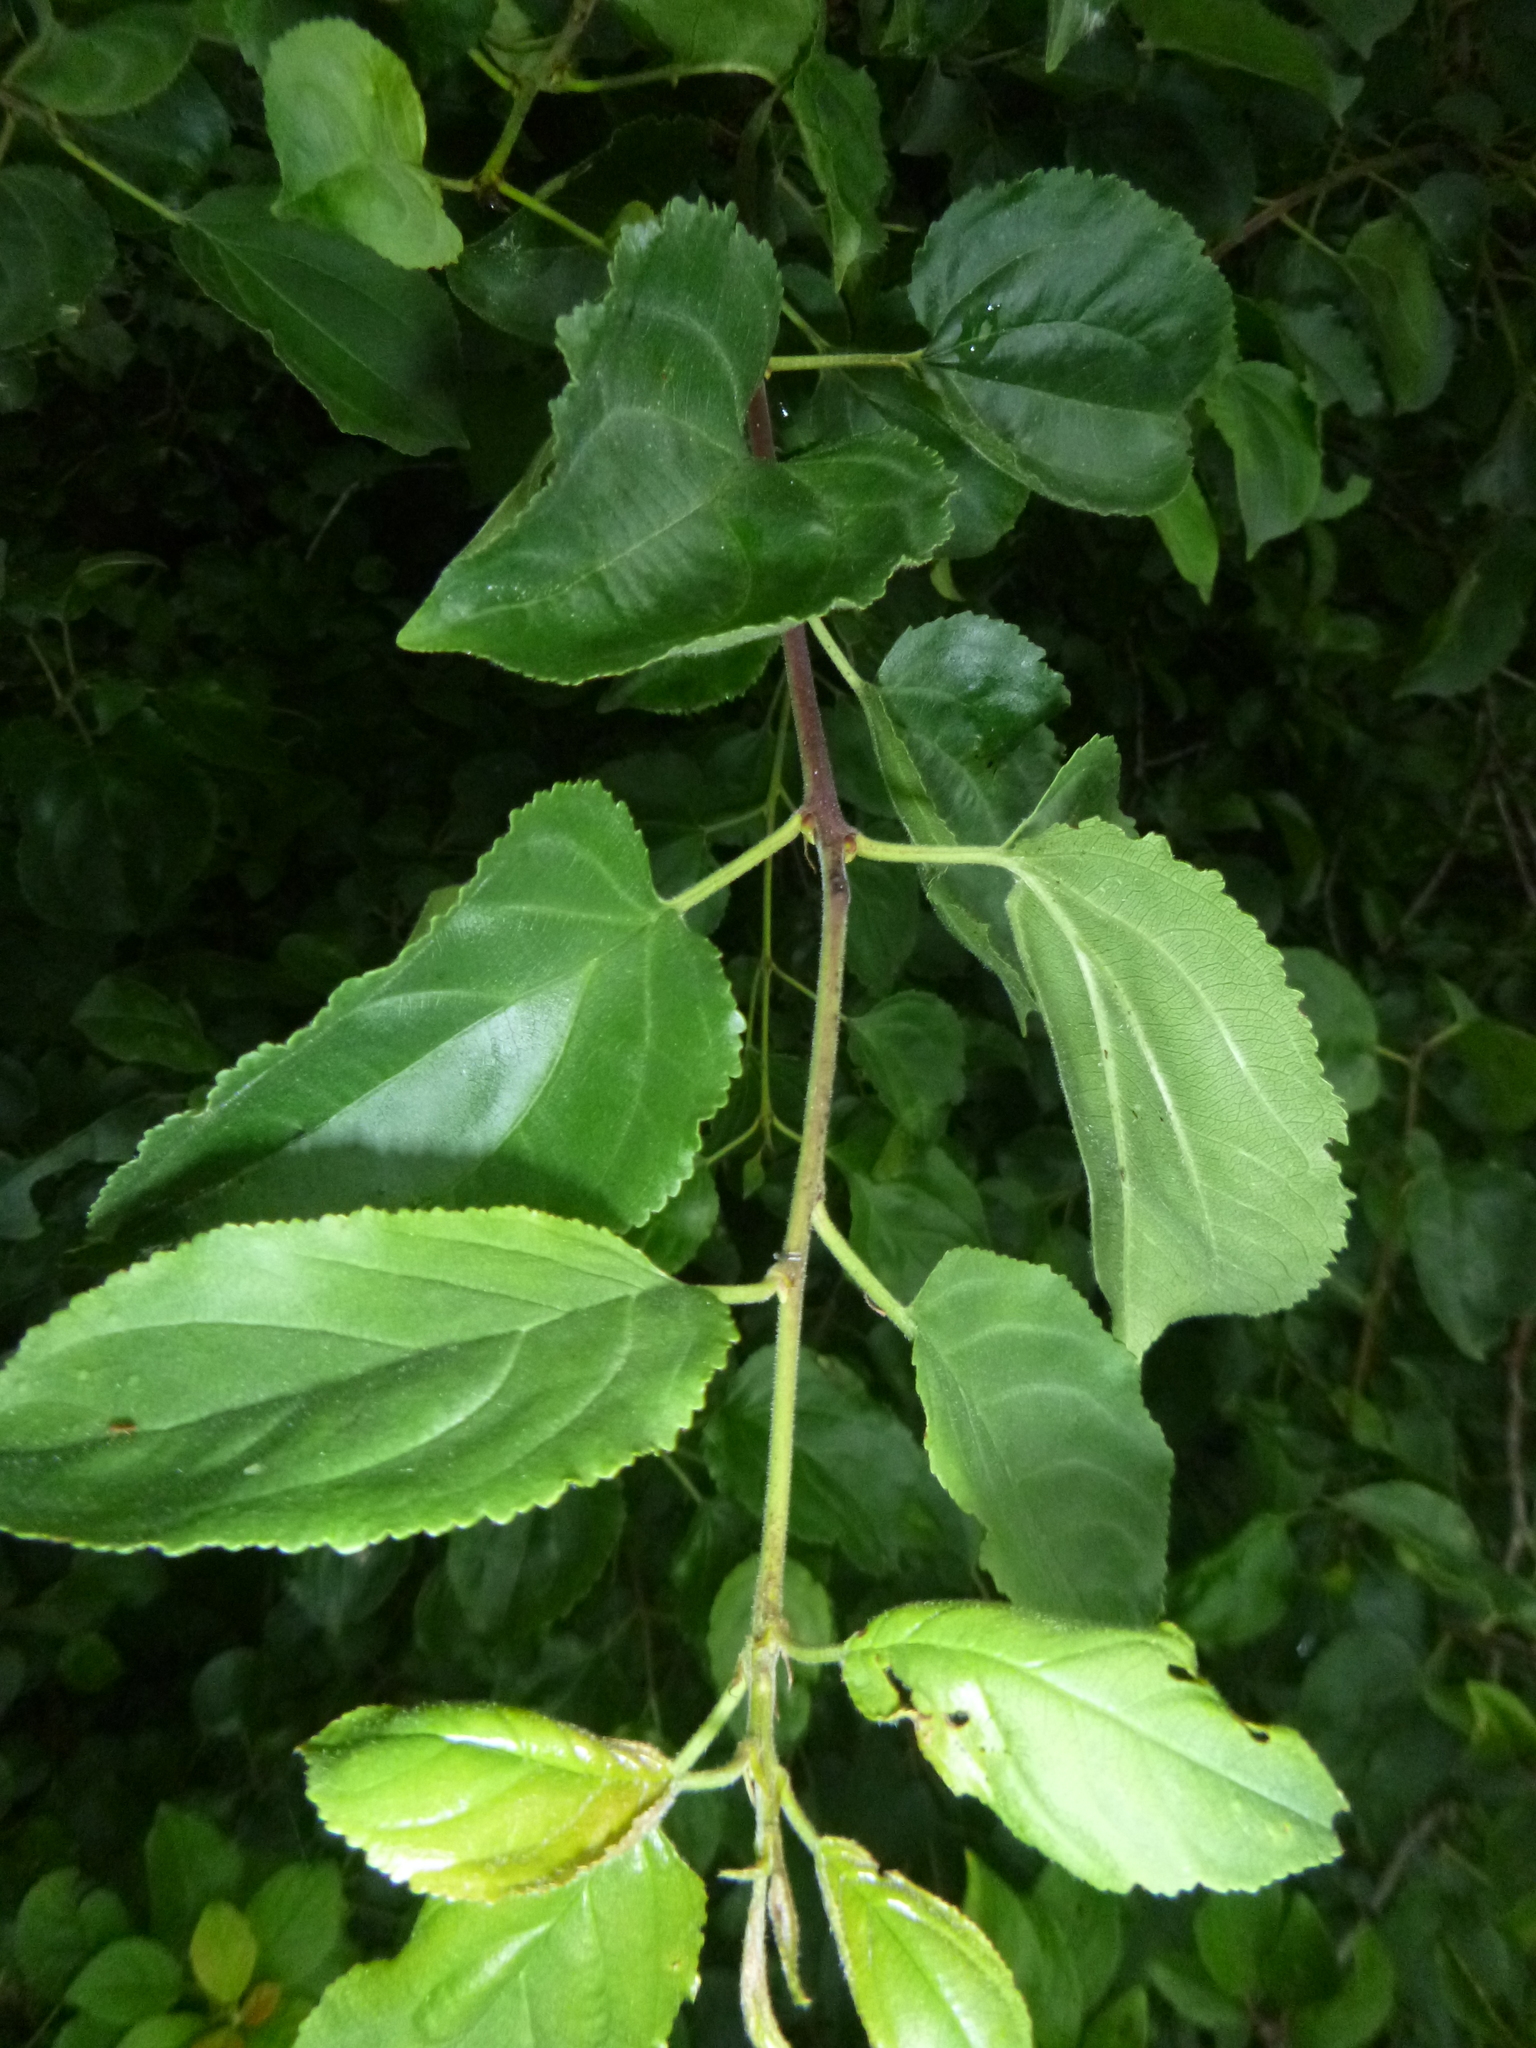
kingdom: Plantae
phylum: Tracheophyta
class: Magnoliopsida
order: Rosales
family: Rhamnaceae
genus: Rhamnus
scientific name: Rhamnus cathartica
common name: Common buckthorn
